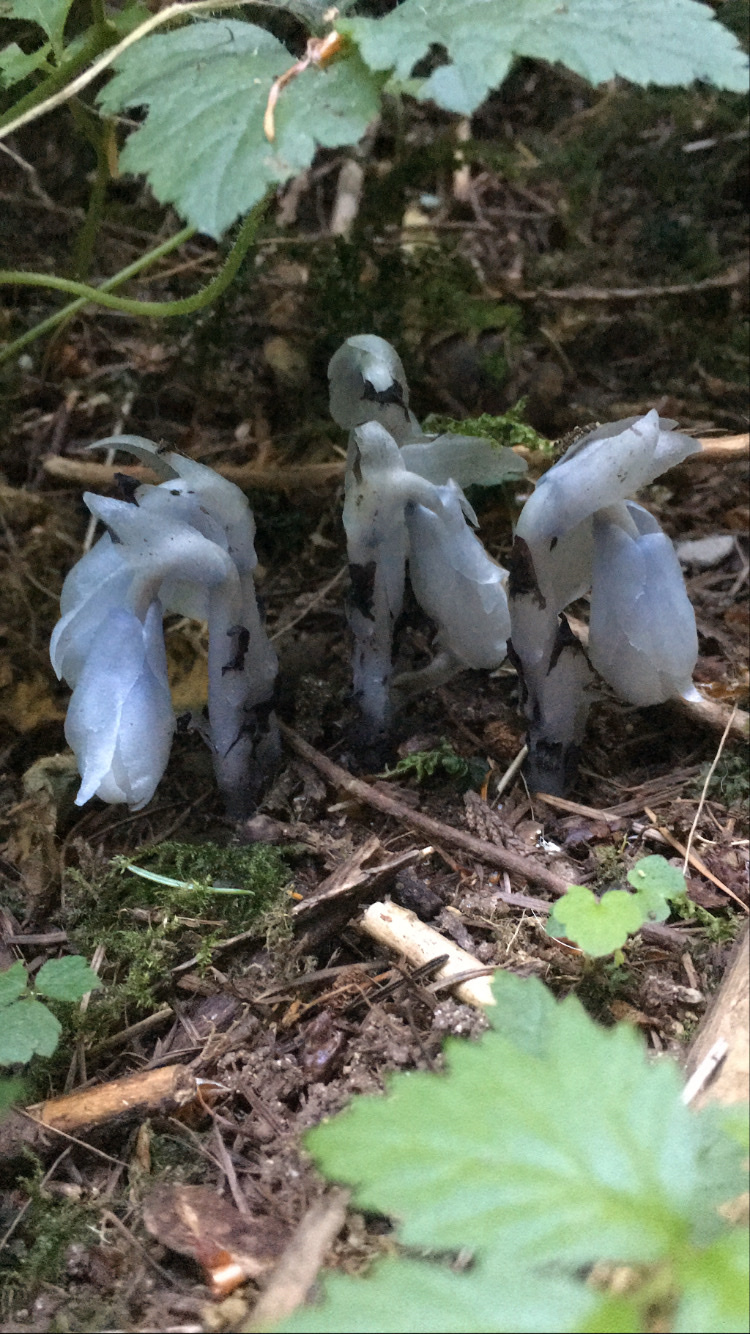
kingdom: Plantae
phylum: Tracheophyta
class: Magnoliopsida
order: Ericales
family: Ericaceae
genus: Monotropa
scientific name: Monotropa uniflora
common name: Convulsion root
